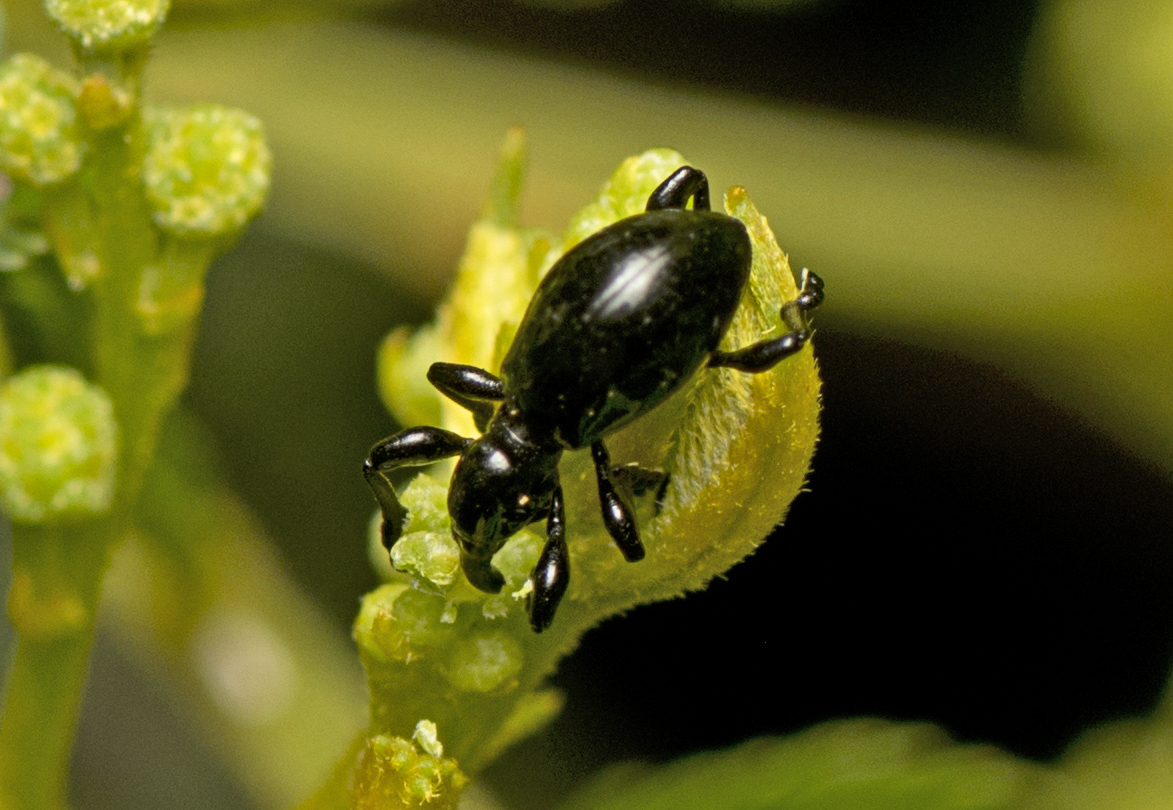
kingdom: Animalia
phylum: Arthropoda
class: Insecta
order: Coleoptera
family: Brentidae
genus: Rhynolaccus
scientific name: Rhynolaccus formicarius
